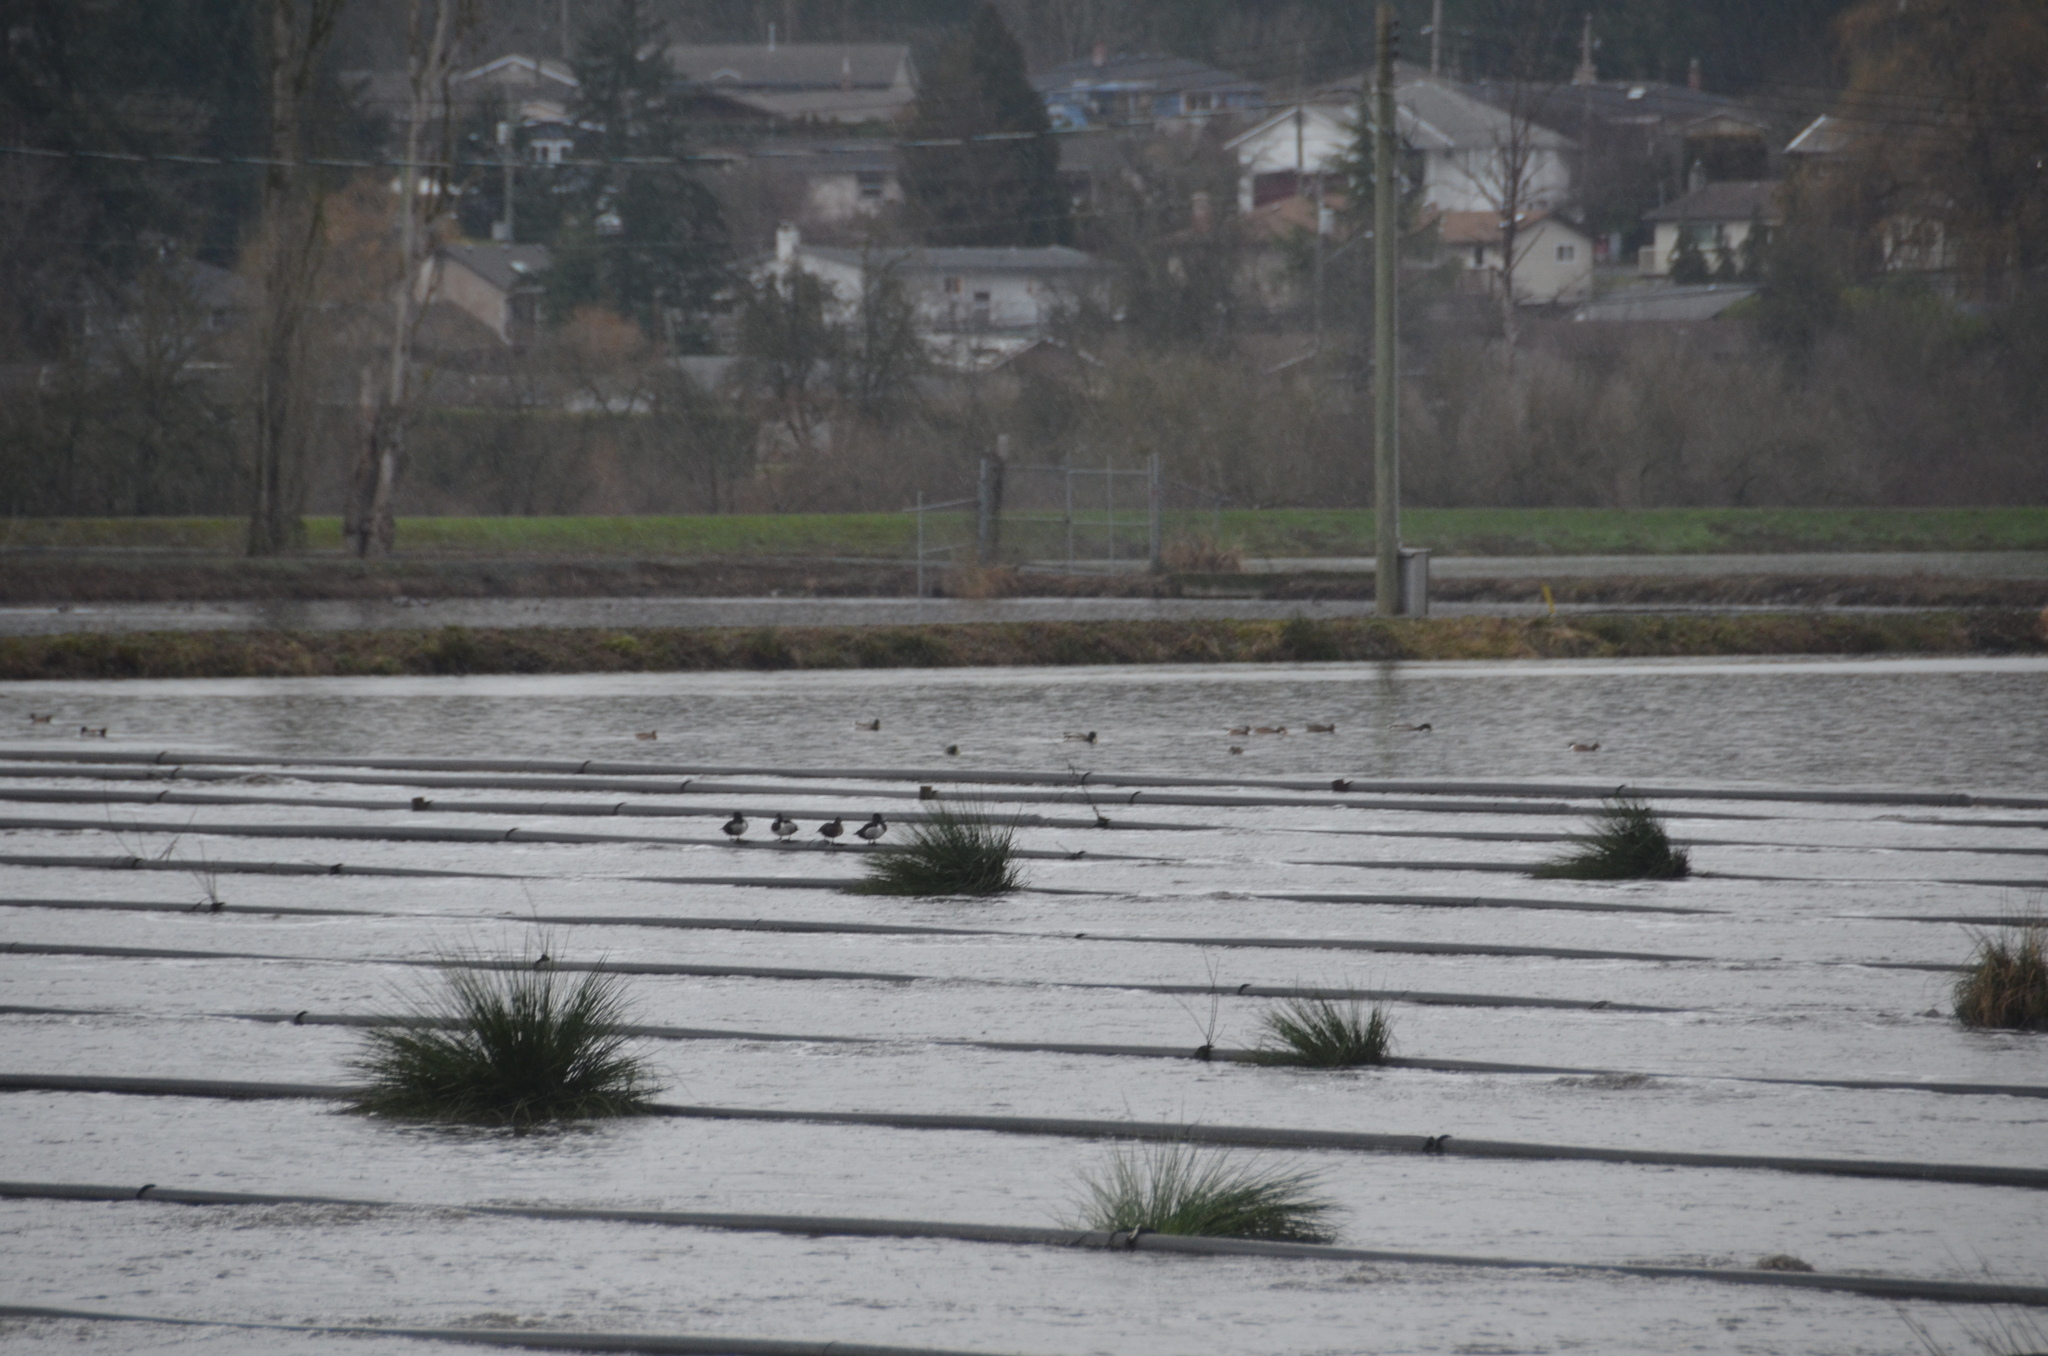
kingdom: Animalia
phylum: Chordata
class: Aves
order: Anseriformes
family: Anatidae
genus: Aythya
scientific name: Aythya collaris
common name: Ring-necked duck
